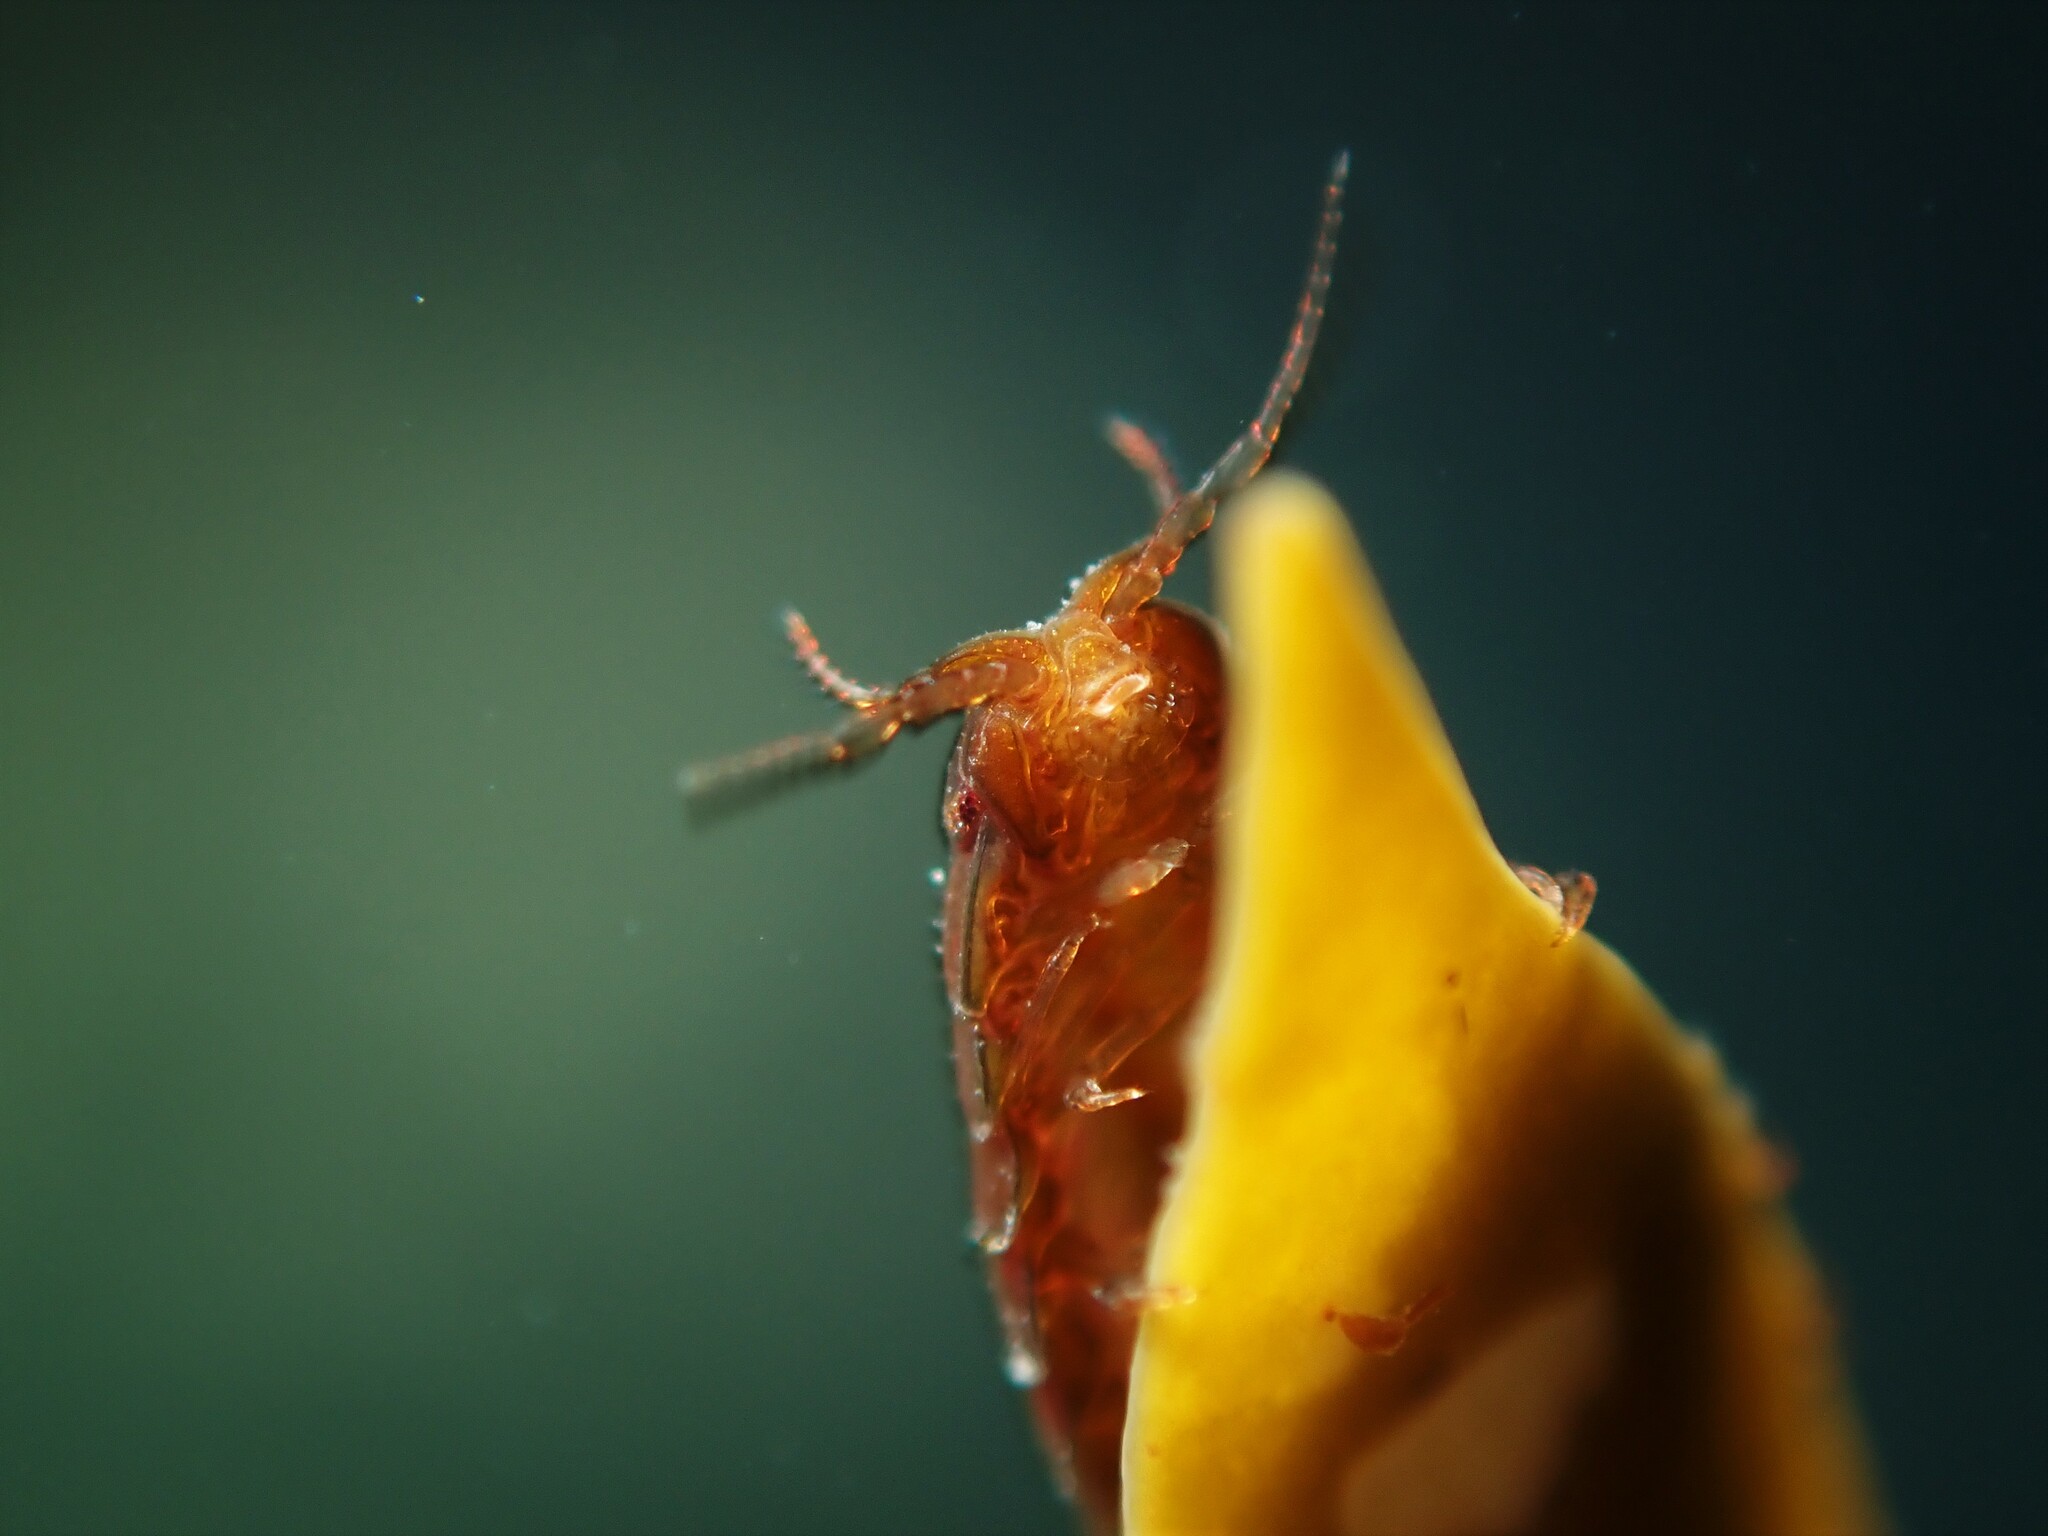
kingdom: Animalia
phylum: Arthropoda
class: Malacostraca
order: Isopoda
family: Sphaeromatidae
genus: Scutuloidea
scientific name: Scutuloidea maculata
